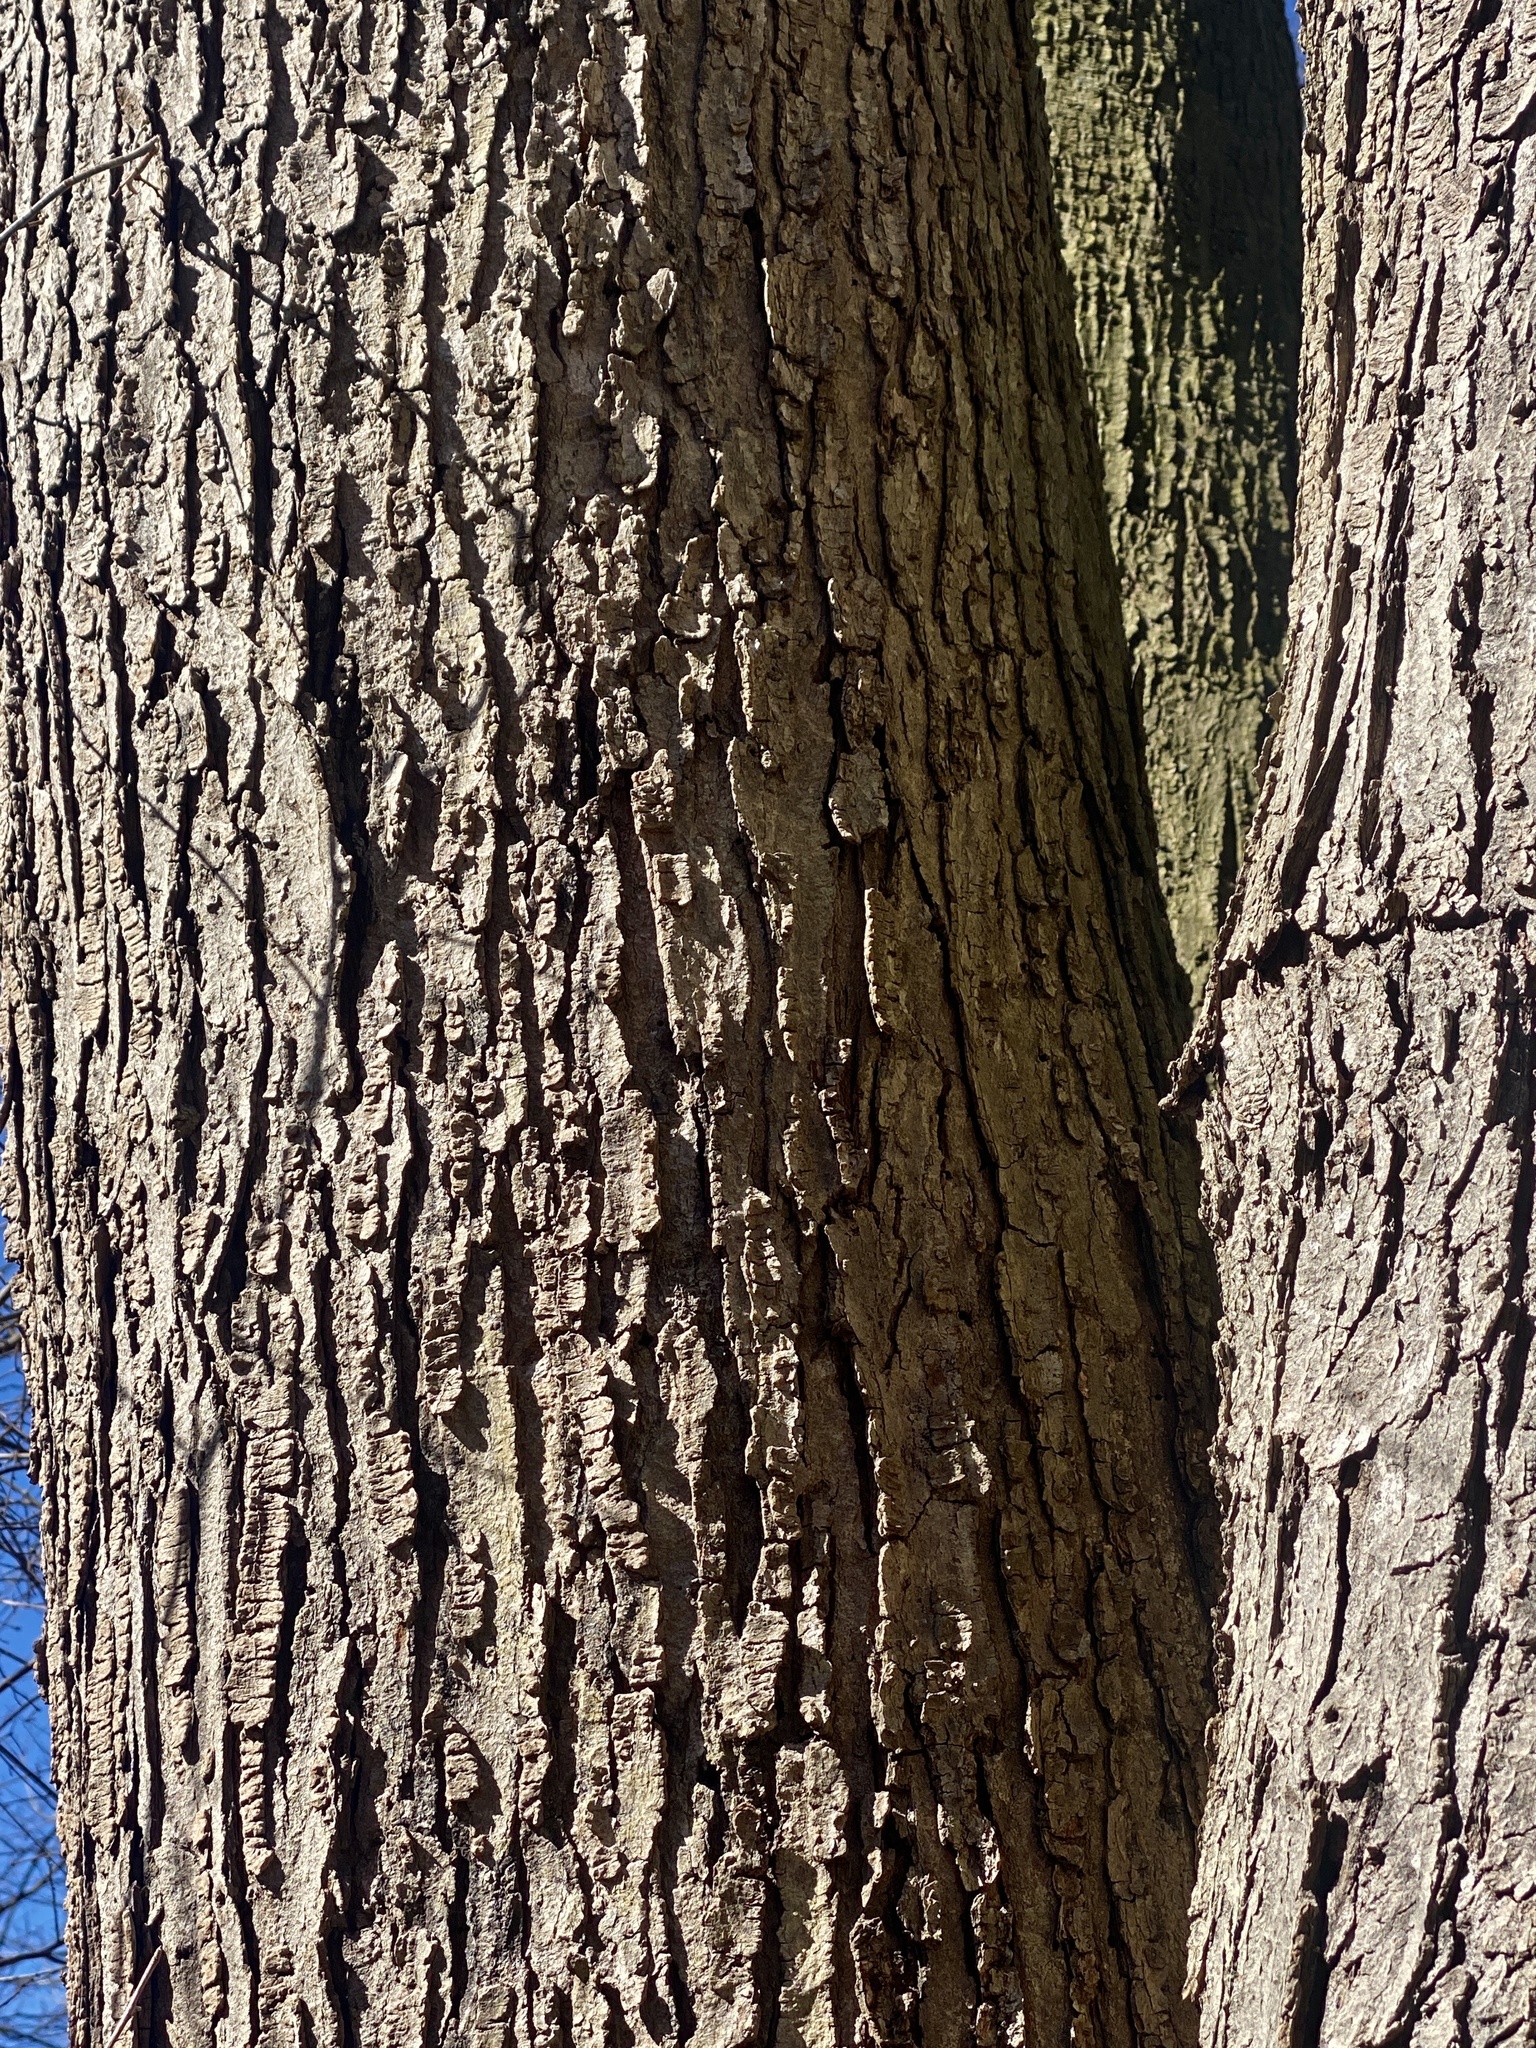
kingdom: Plantae
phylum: Tracheophyta
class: Magnoliopsida
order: Fagales
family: Juglandaceae
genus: Juglans
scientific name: Juglans nigra
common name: Black walnut
